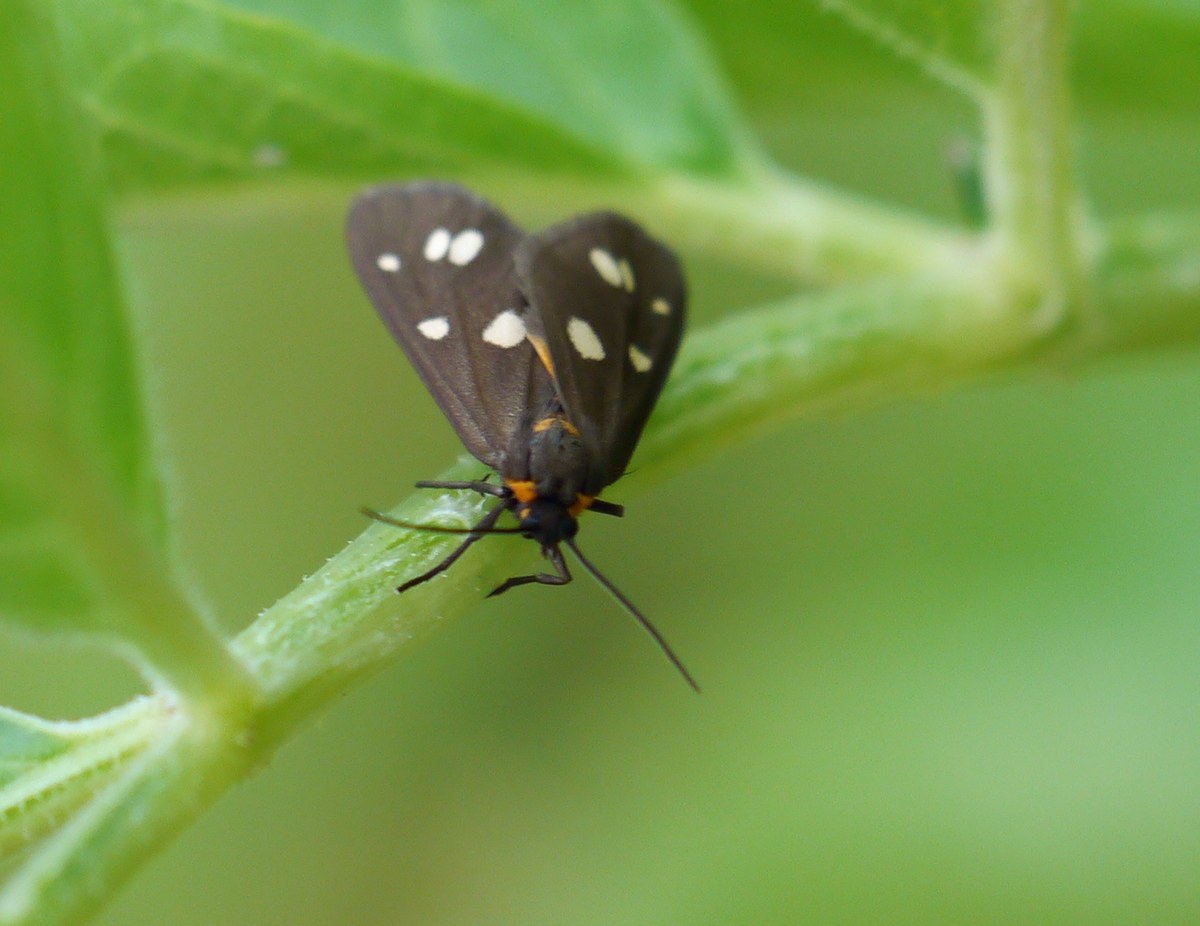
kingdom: Animalia
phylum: Arthropoda
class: Insecta
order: Lepidoptera
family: Erebidae
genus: Dysauxes
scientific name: Dysauxes punctata
